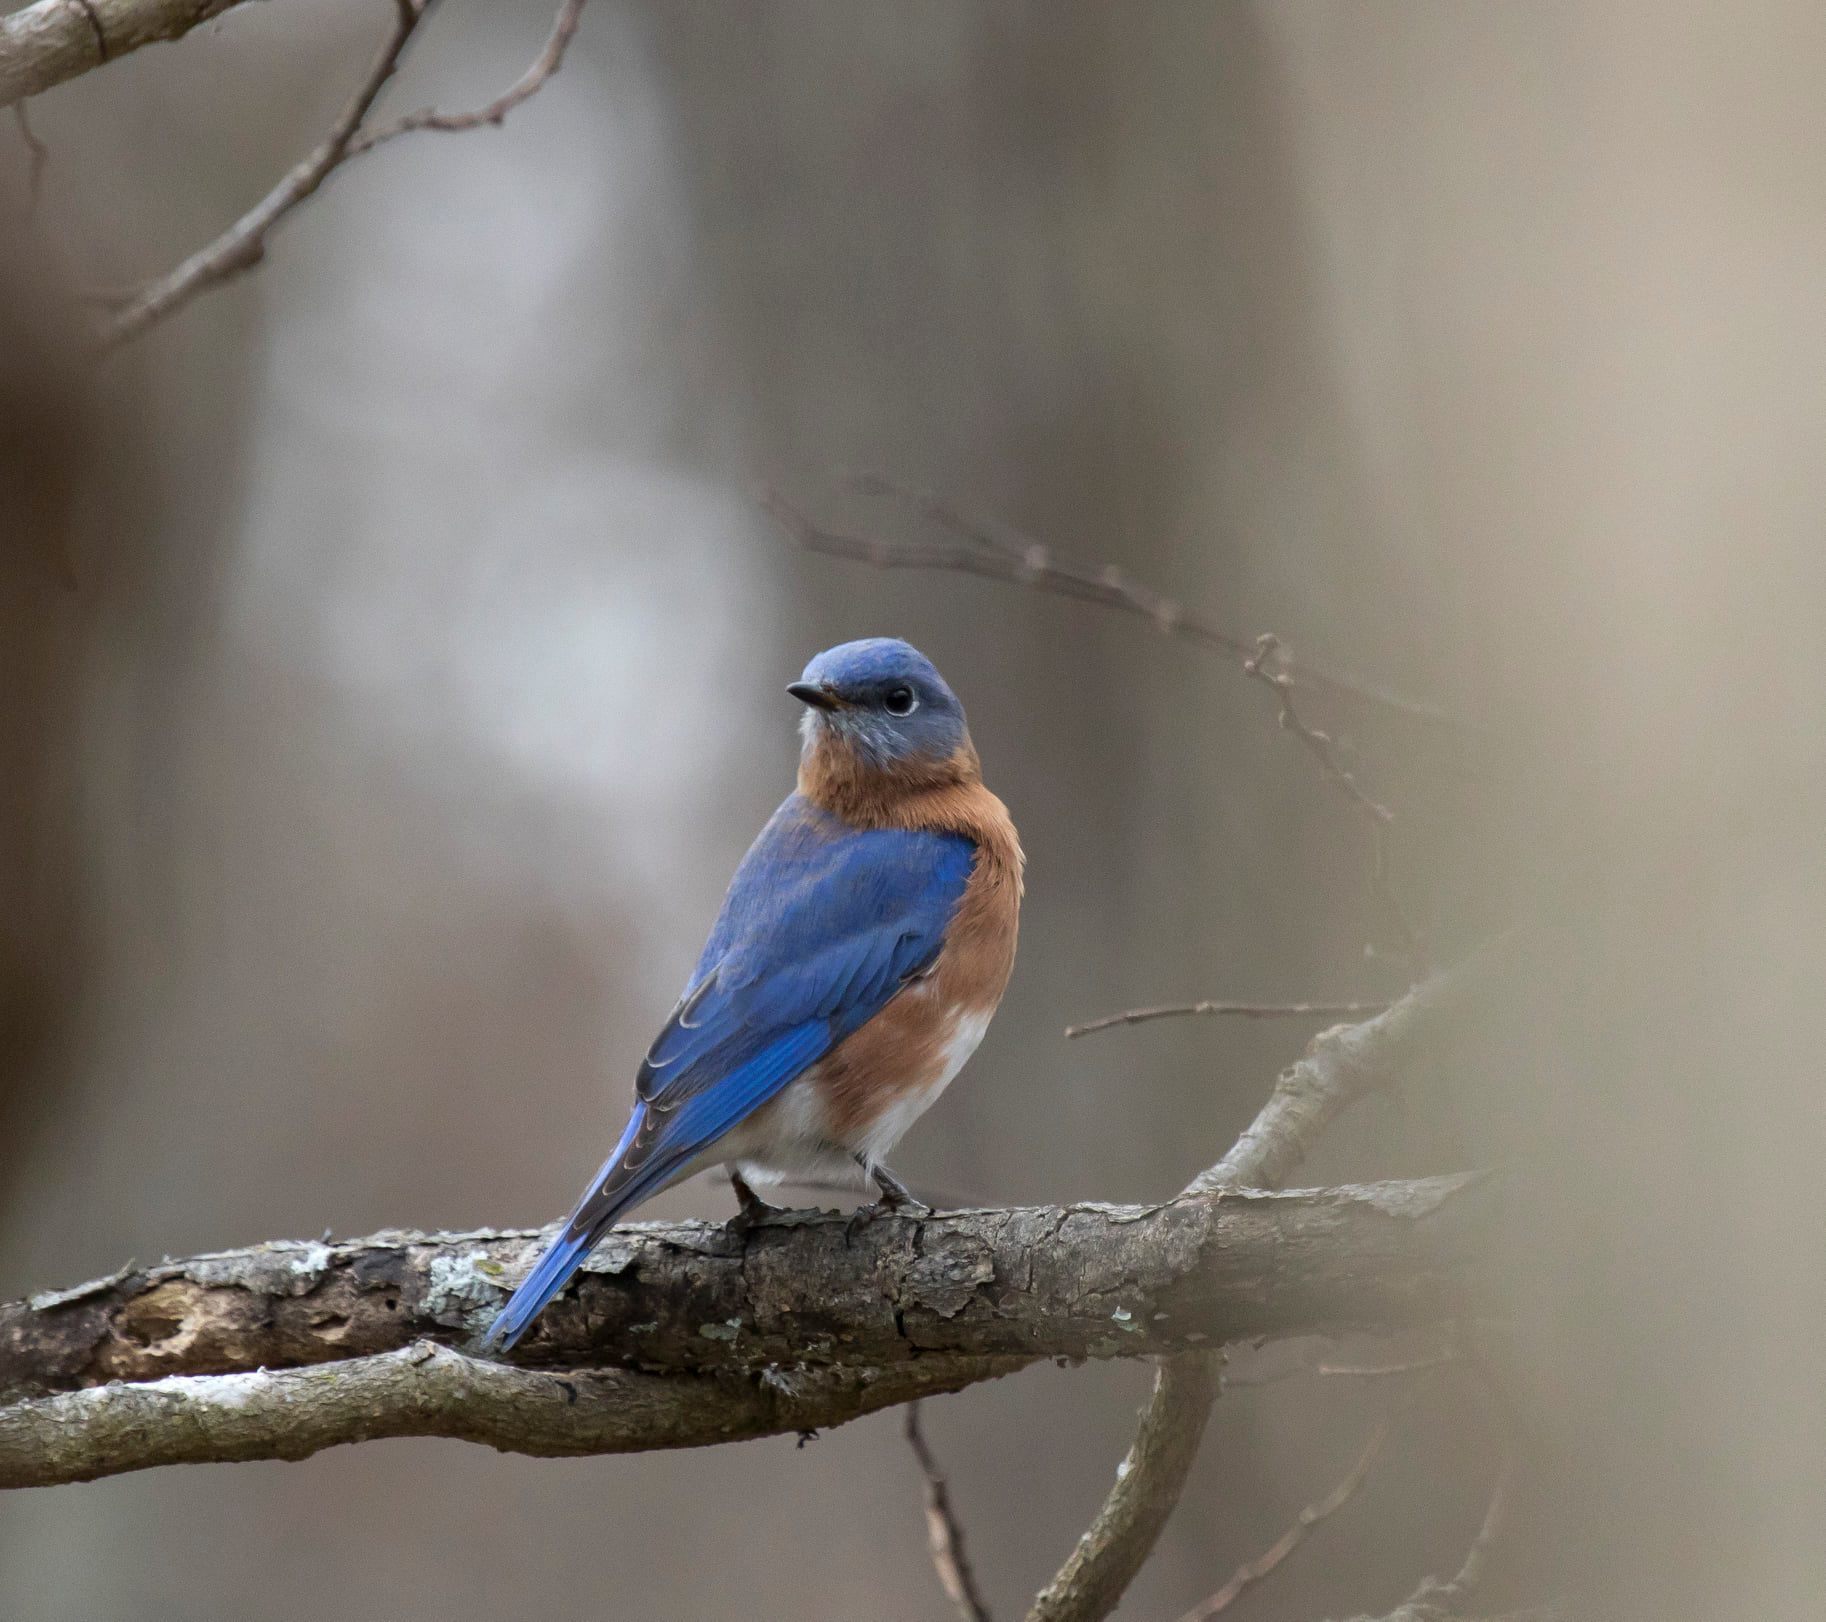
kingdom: Animalia
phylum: Chordata
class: Aves
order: Passeriformes
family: Turdidae
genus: Sialia
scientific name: Sialia sialis
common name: Eastern bluebird
